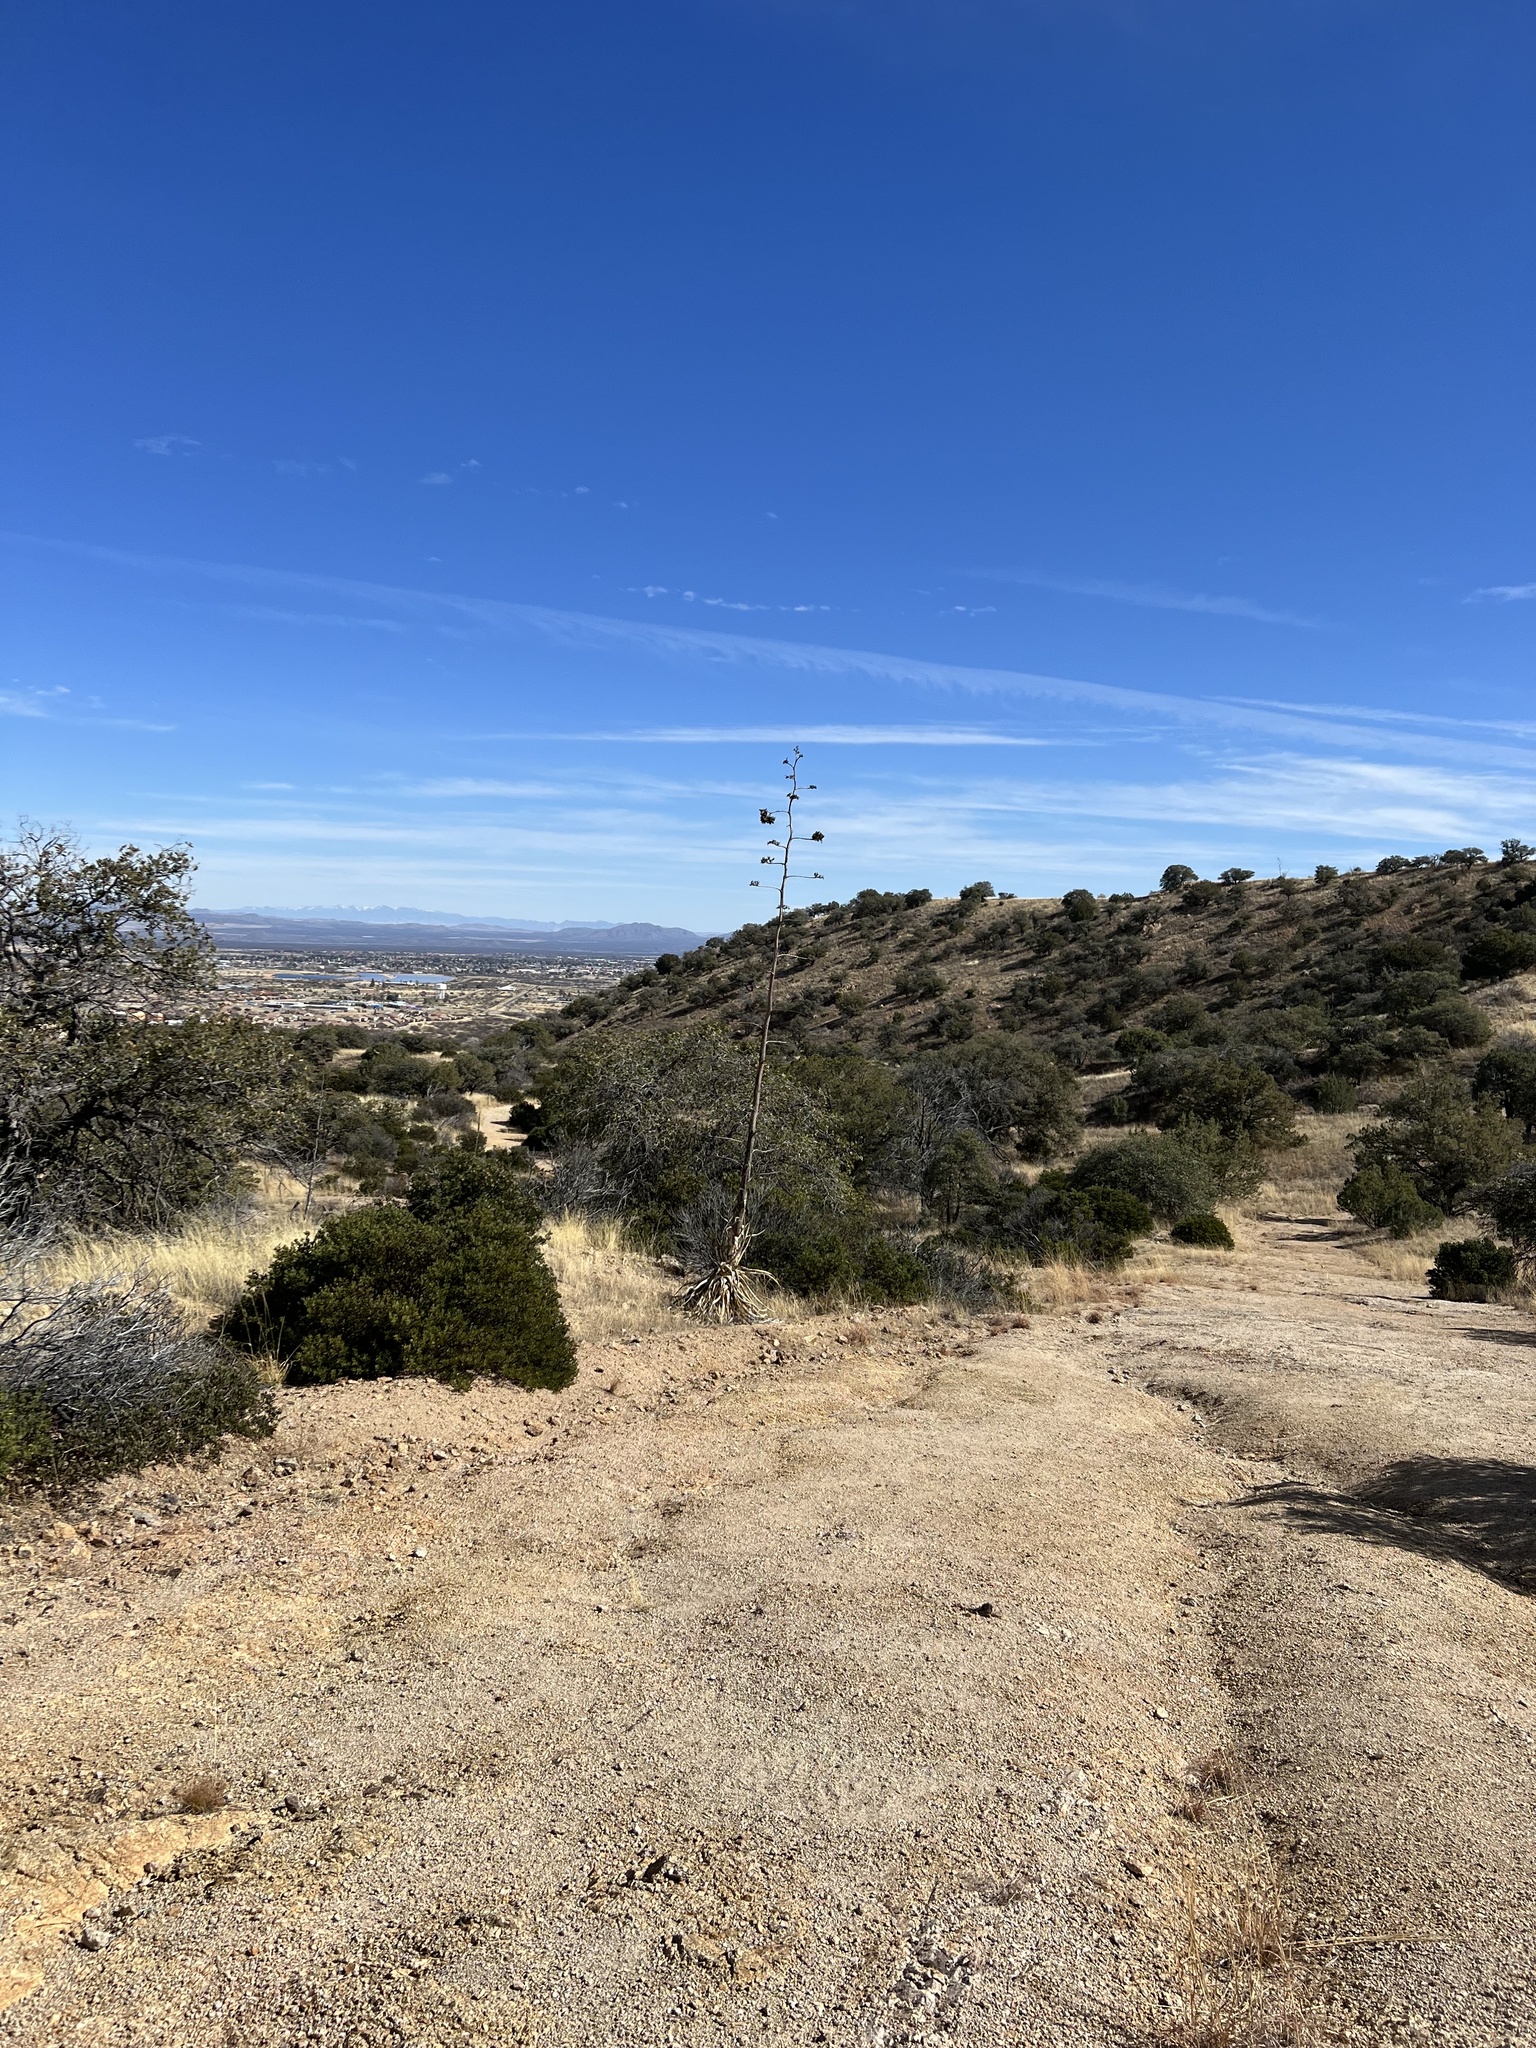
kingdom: Plantae
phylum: Tracheophyta
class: Liliopsida
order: Asparagales
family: Asparagaceae
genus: Agave
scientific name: Agave palmeri
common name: Palmer agave
